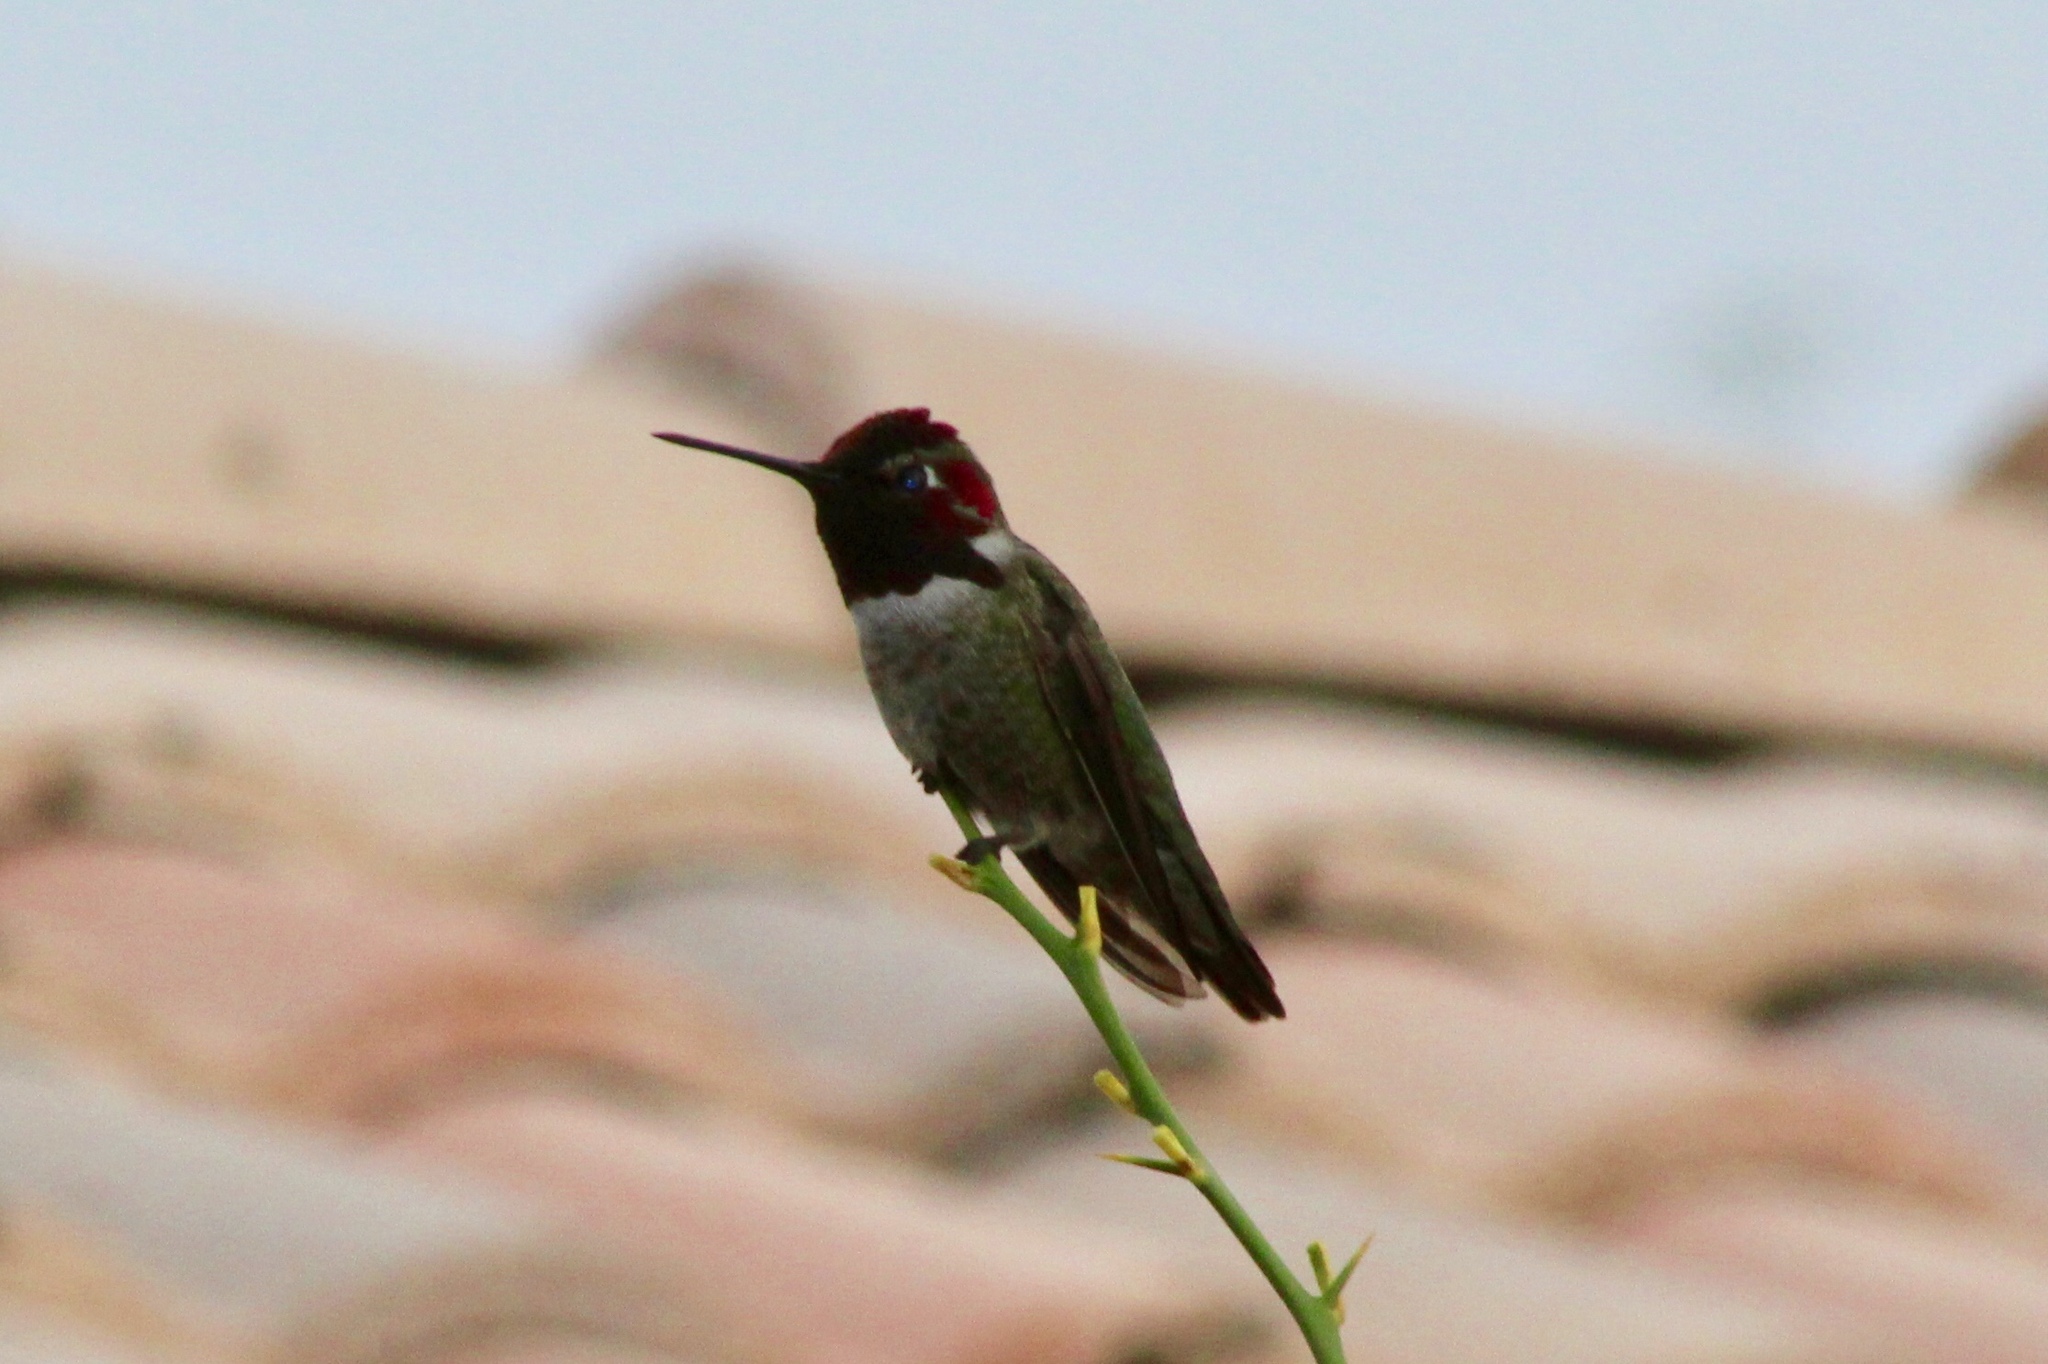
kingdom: Animalia
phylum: Chordata
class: Aves
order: Apodiformes
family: Trochilidae
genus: Calypte
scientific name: Calypte anna
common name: Anna's hummingbird
